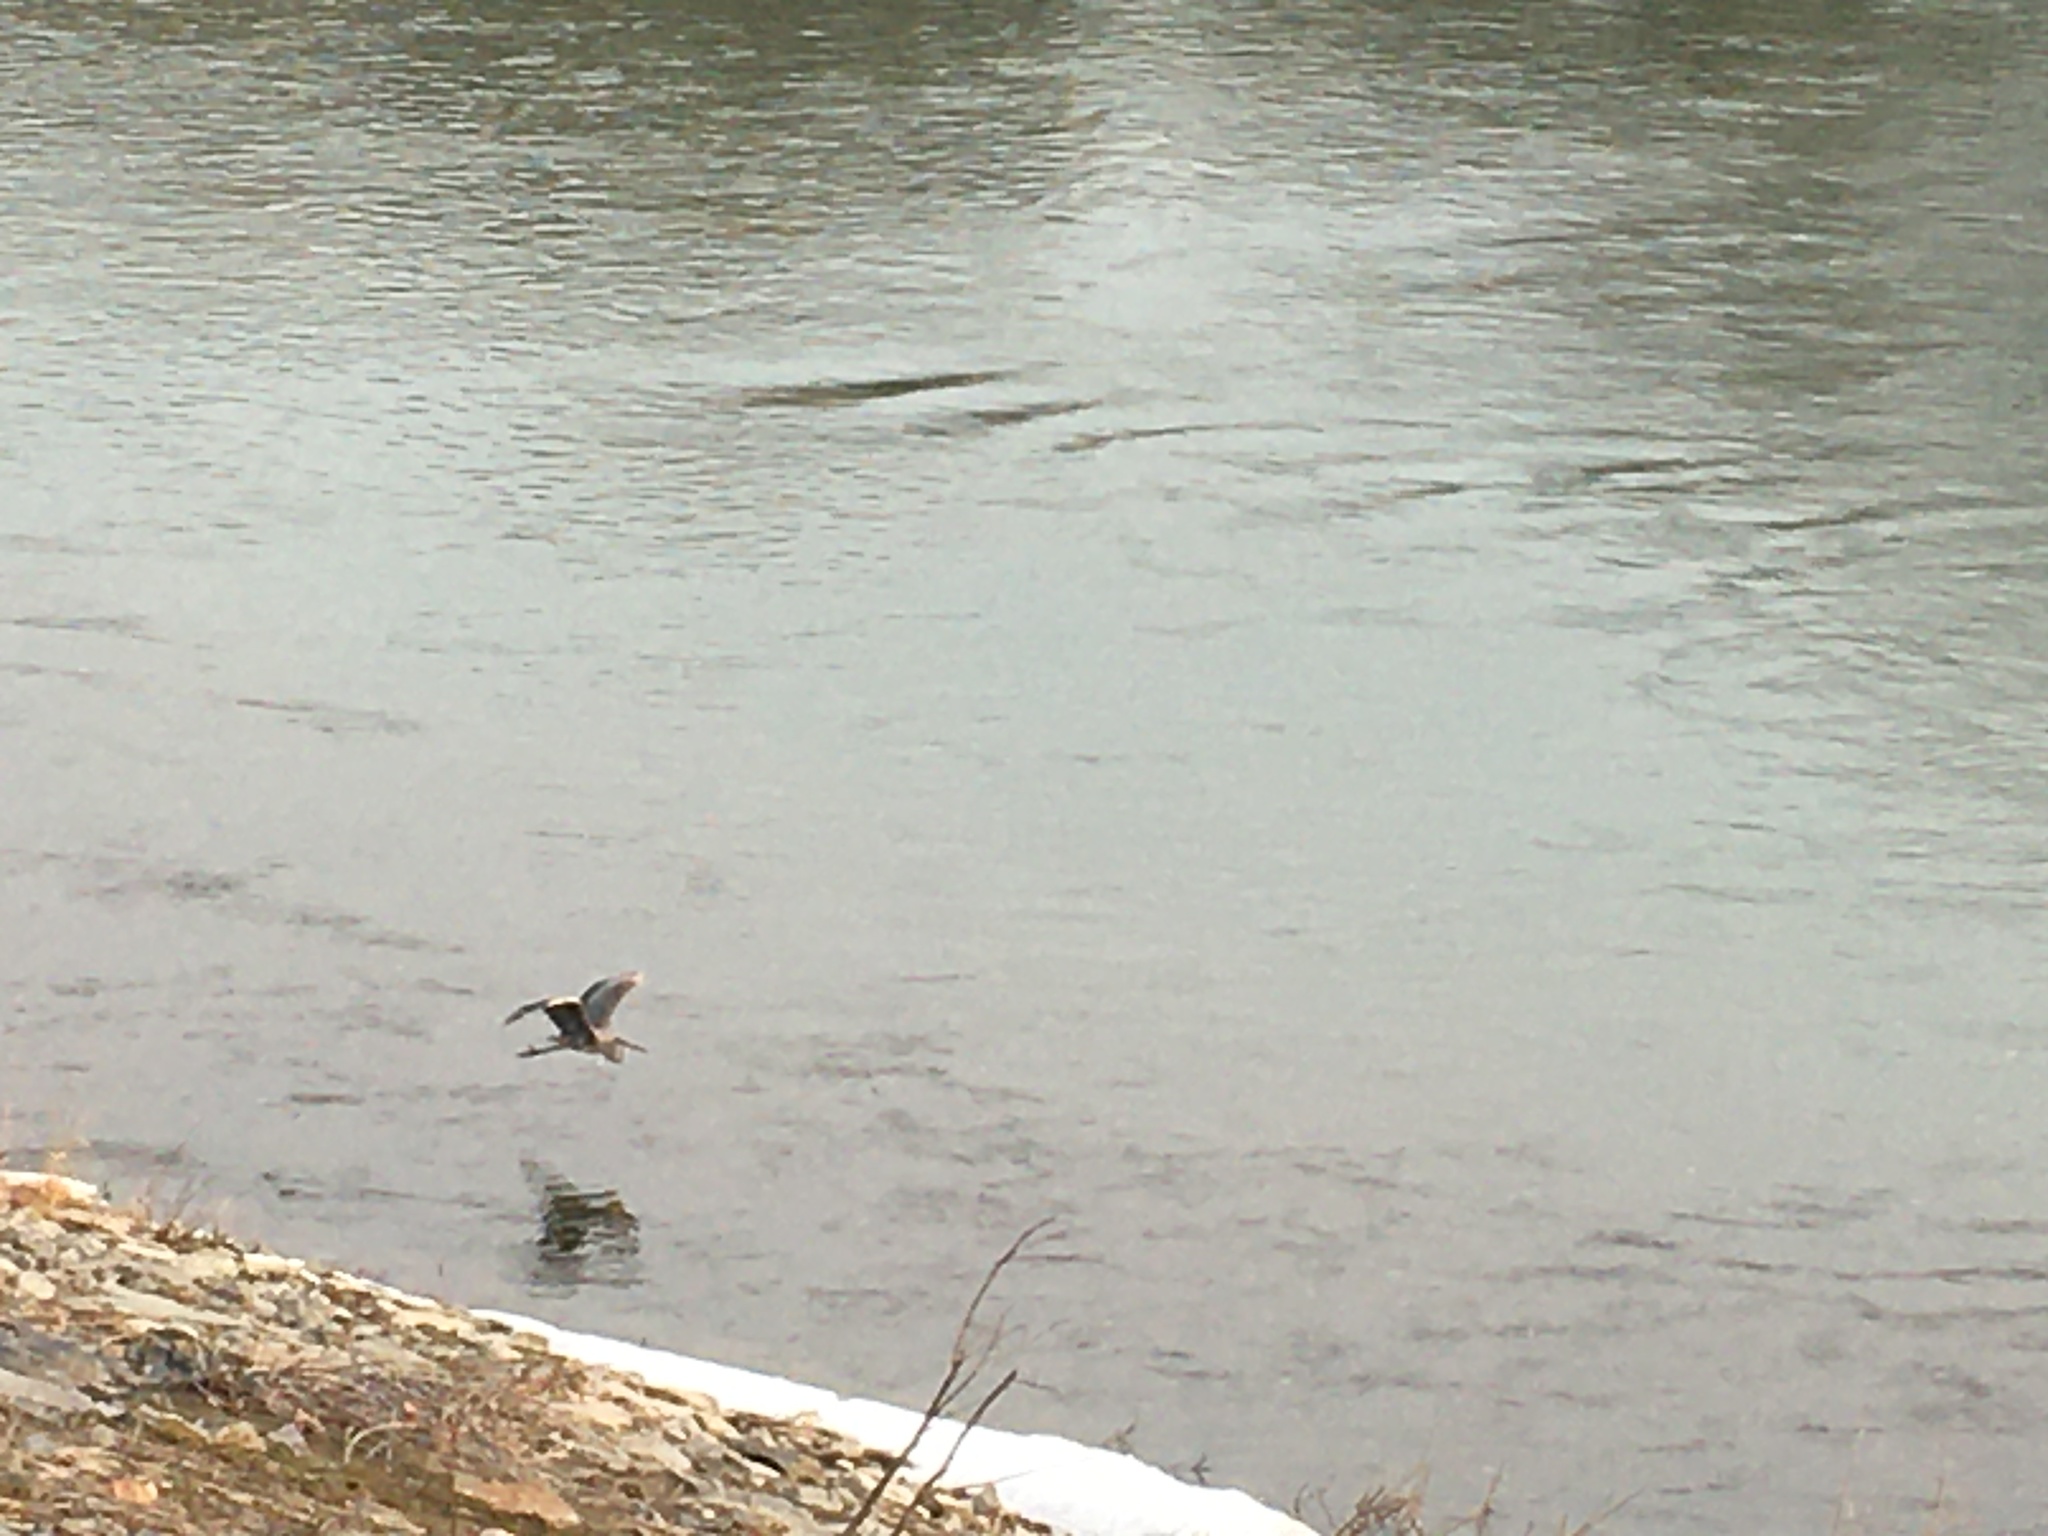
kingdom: Animalia
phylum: Chordata
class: Aves
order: Pelecaniformes
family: Ardeidae
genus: Ardea
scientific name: Ardea herodias
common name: Great blue heron
